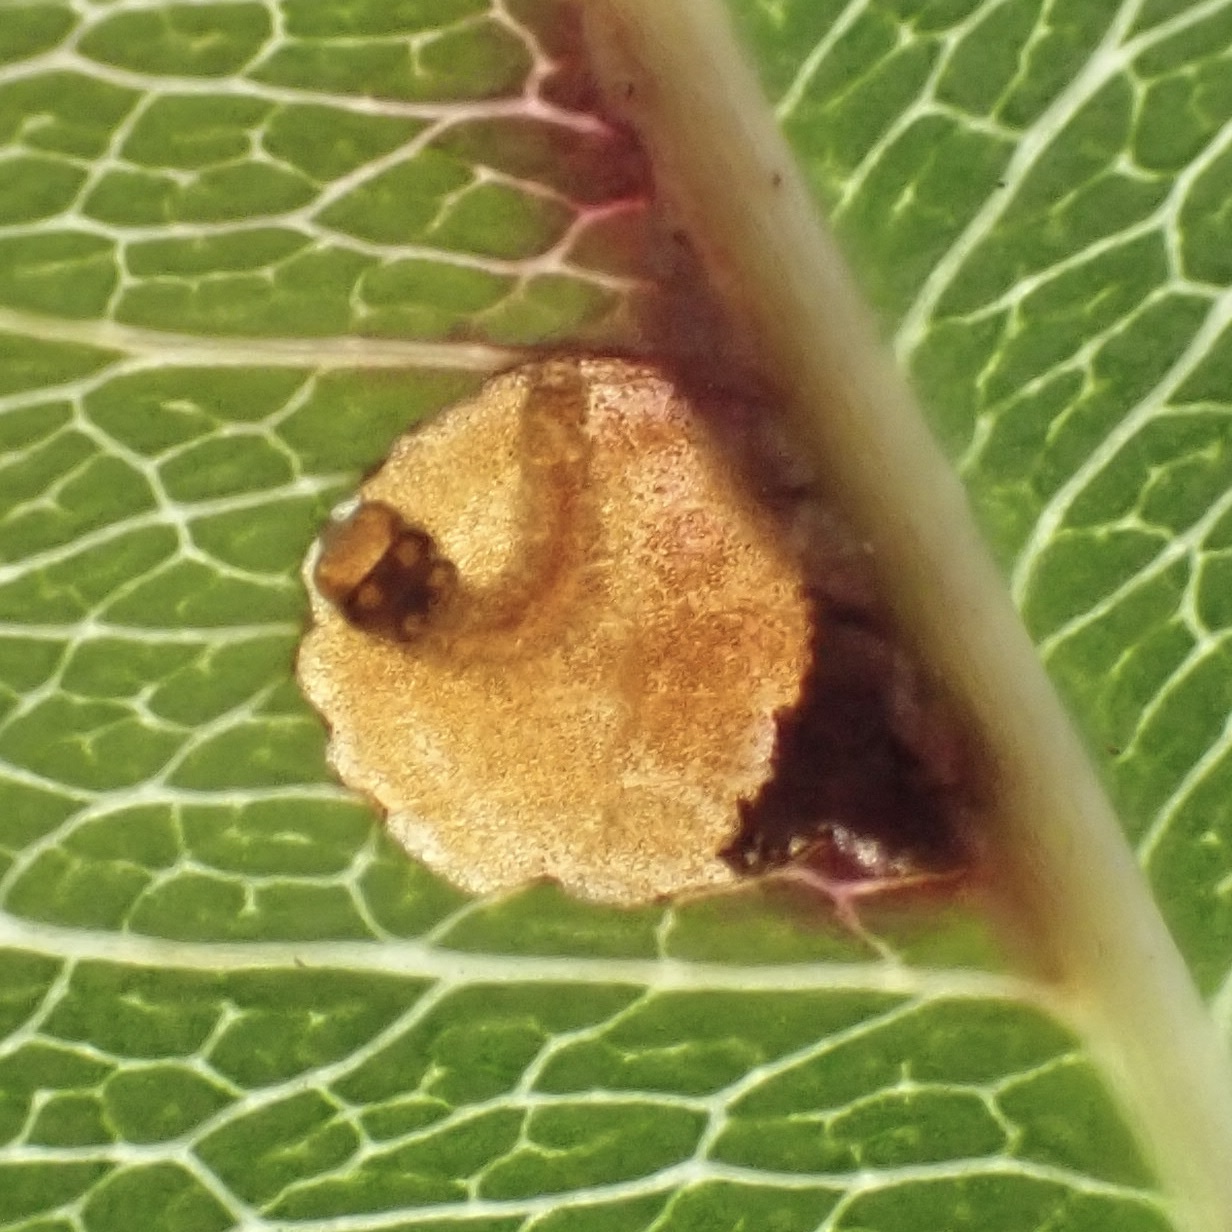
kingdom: Animalia
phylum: Arthropoda
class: Insecta
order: Lepidoptera
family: Heliozelidae
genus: Coptodisca
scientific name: Coptodisca splendoriferella
